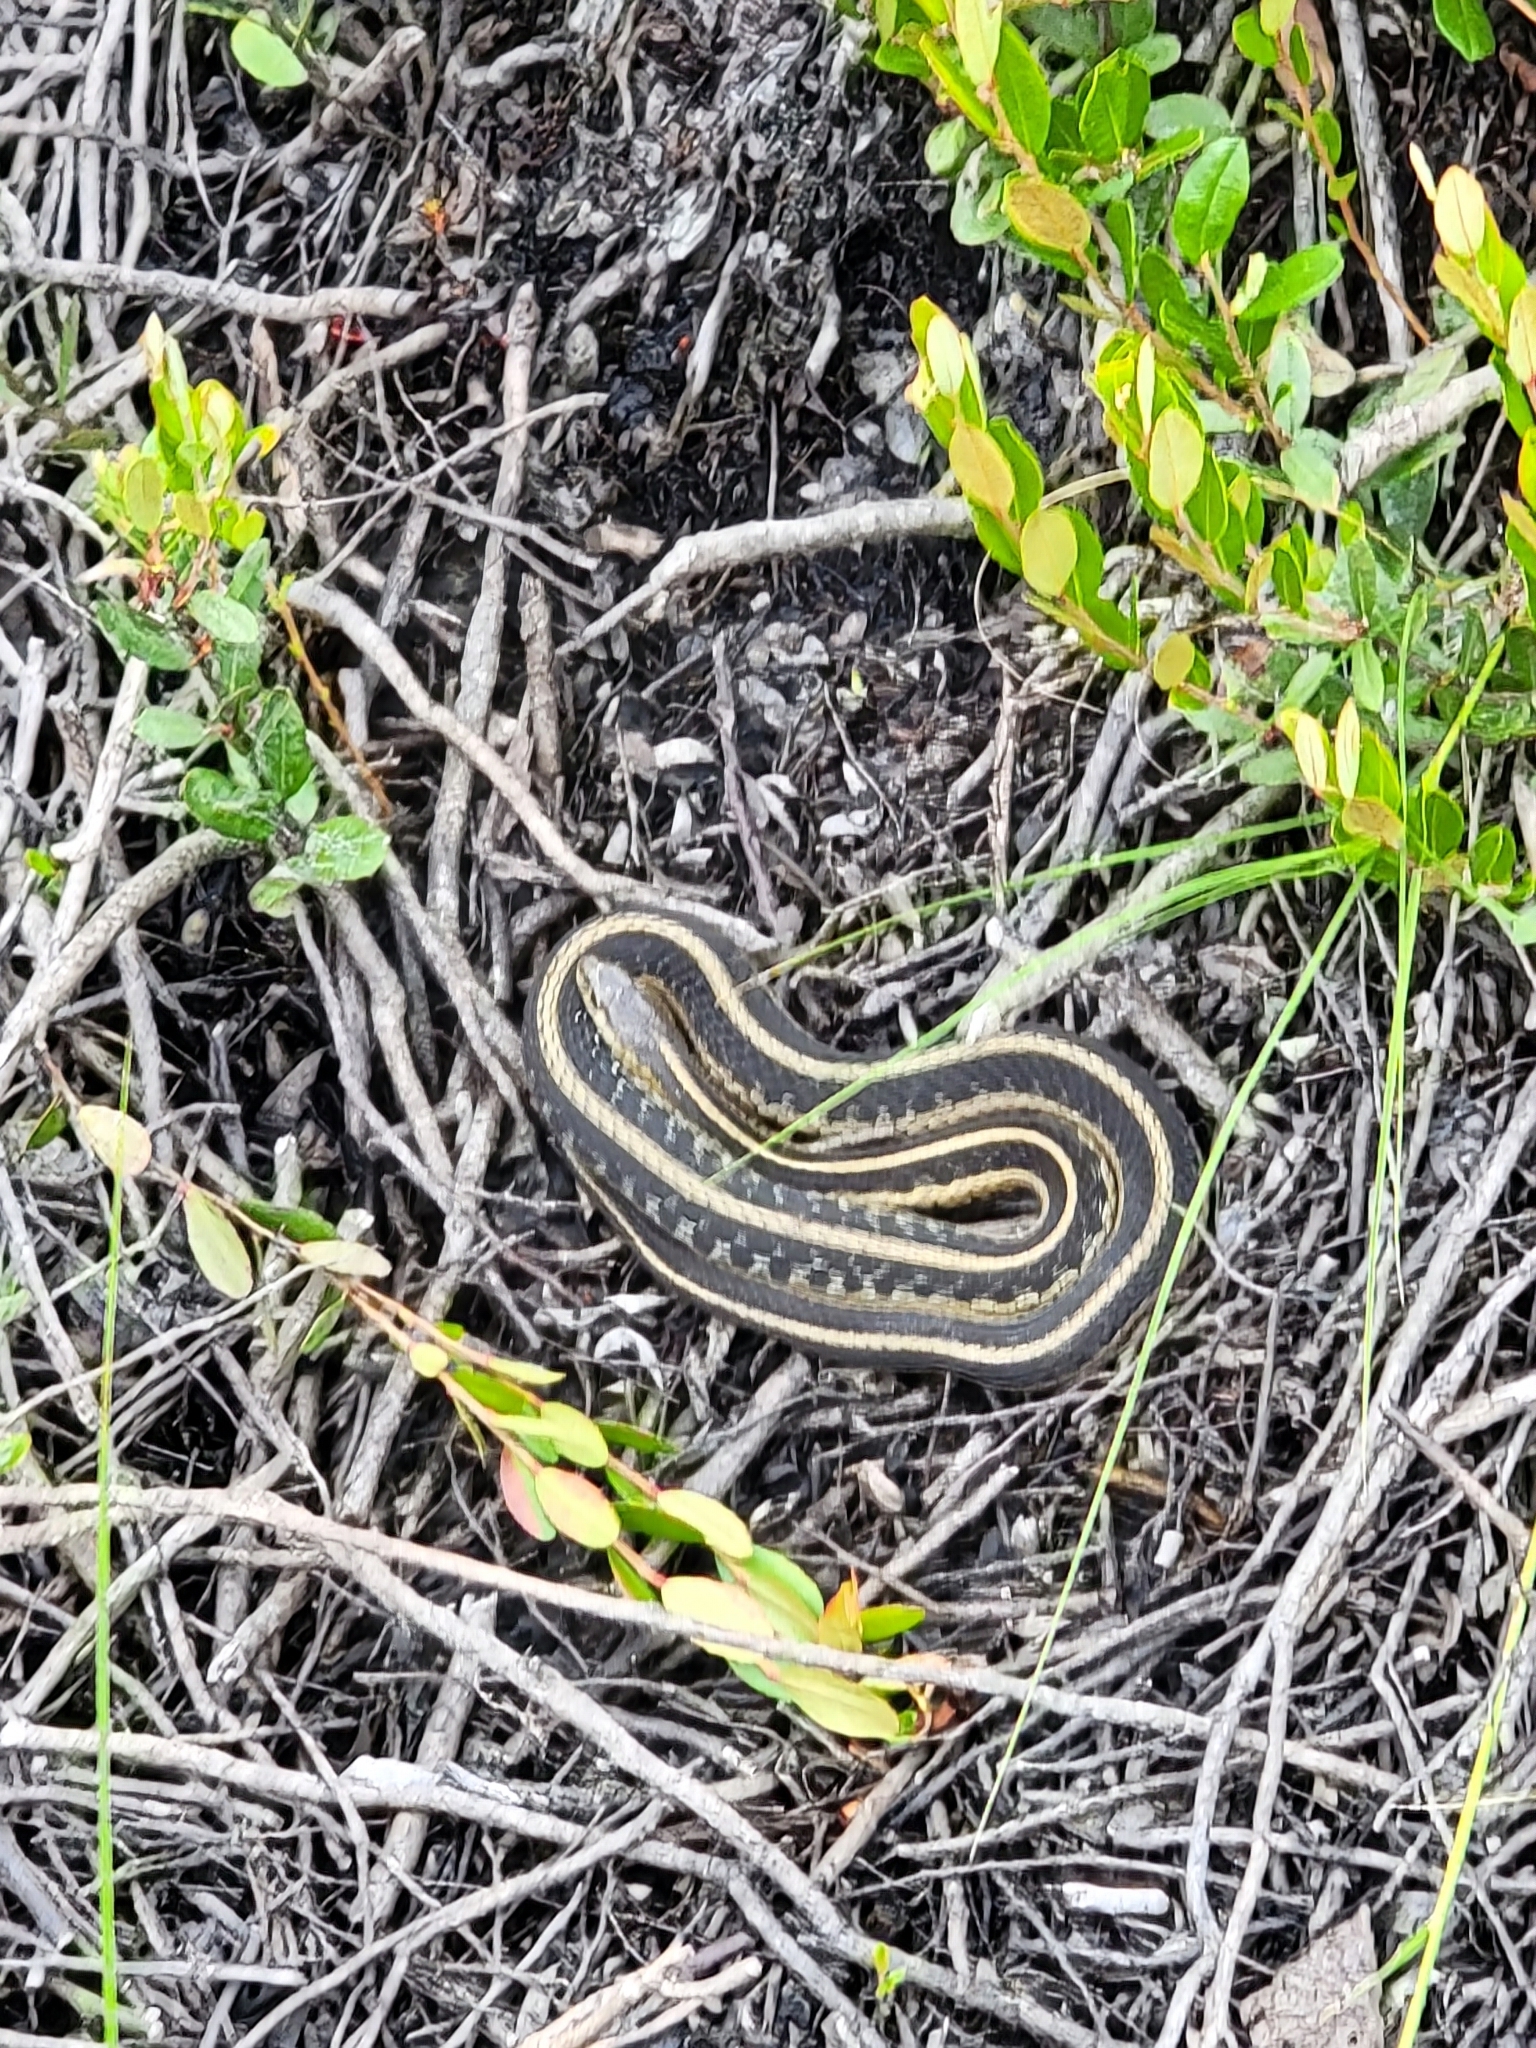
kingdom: Animalia
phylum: Chordata
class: Squamata
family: Colubridae
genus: Thamnophis
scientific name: Thamnophis sirtalis
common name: Common garter snake
